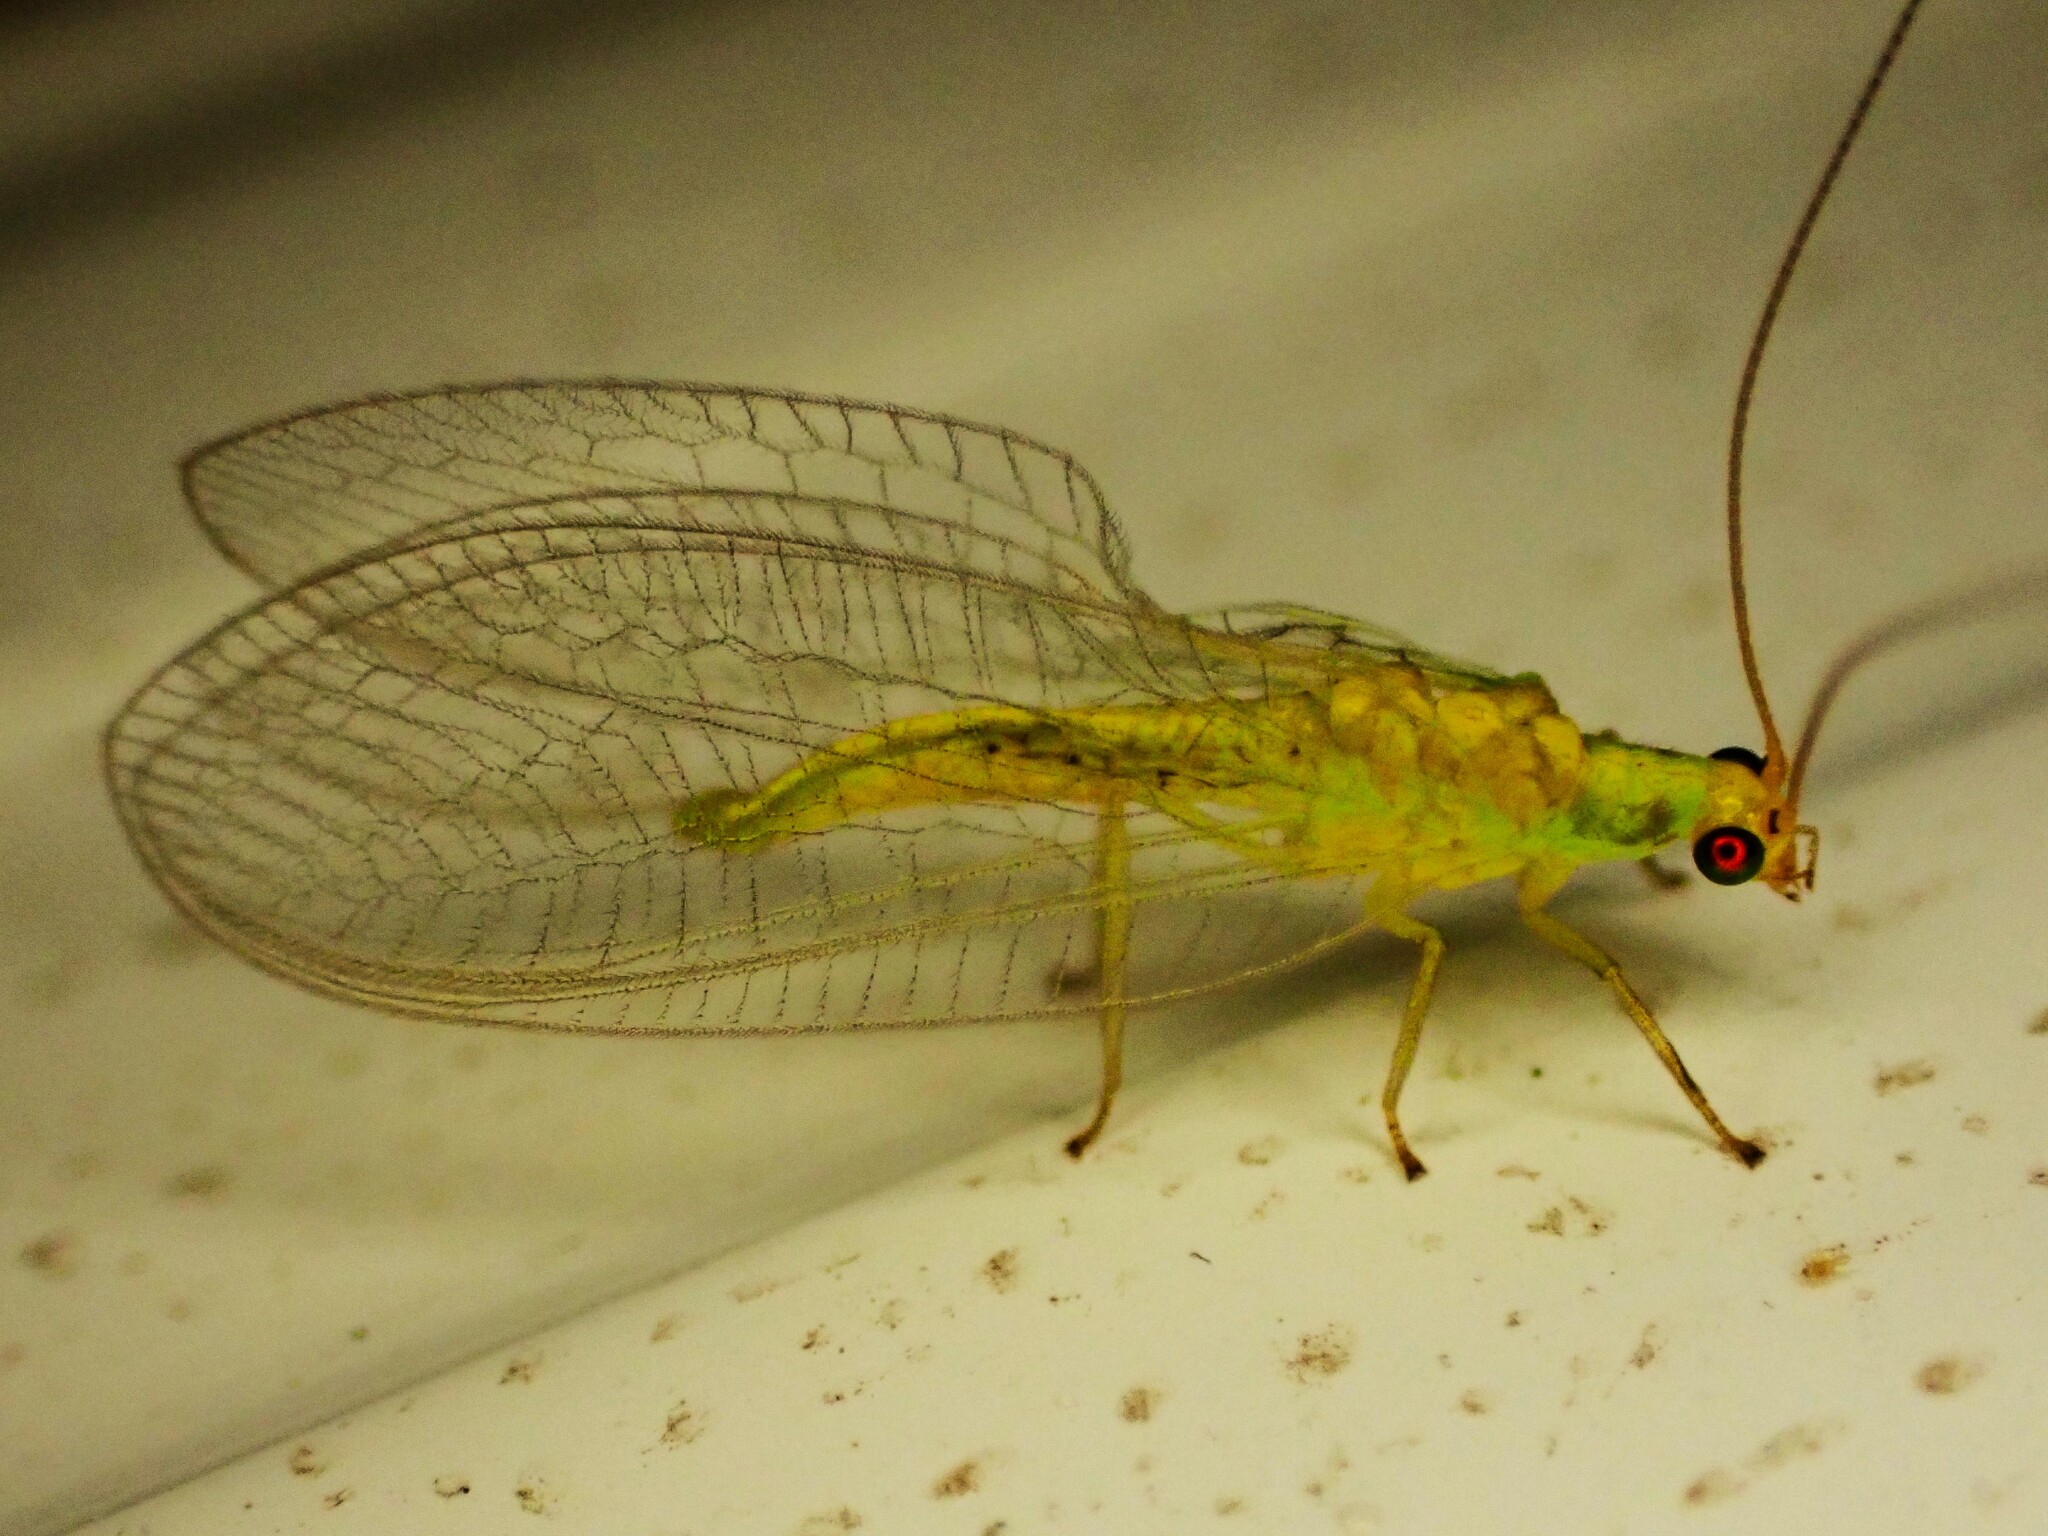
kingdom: Animalia
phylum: Arthropoda
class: Insecta
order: Neuroptera
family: Chrysopidae
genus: Mallada
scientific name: Mallada basalis
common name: Green lacewing
